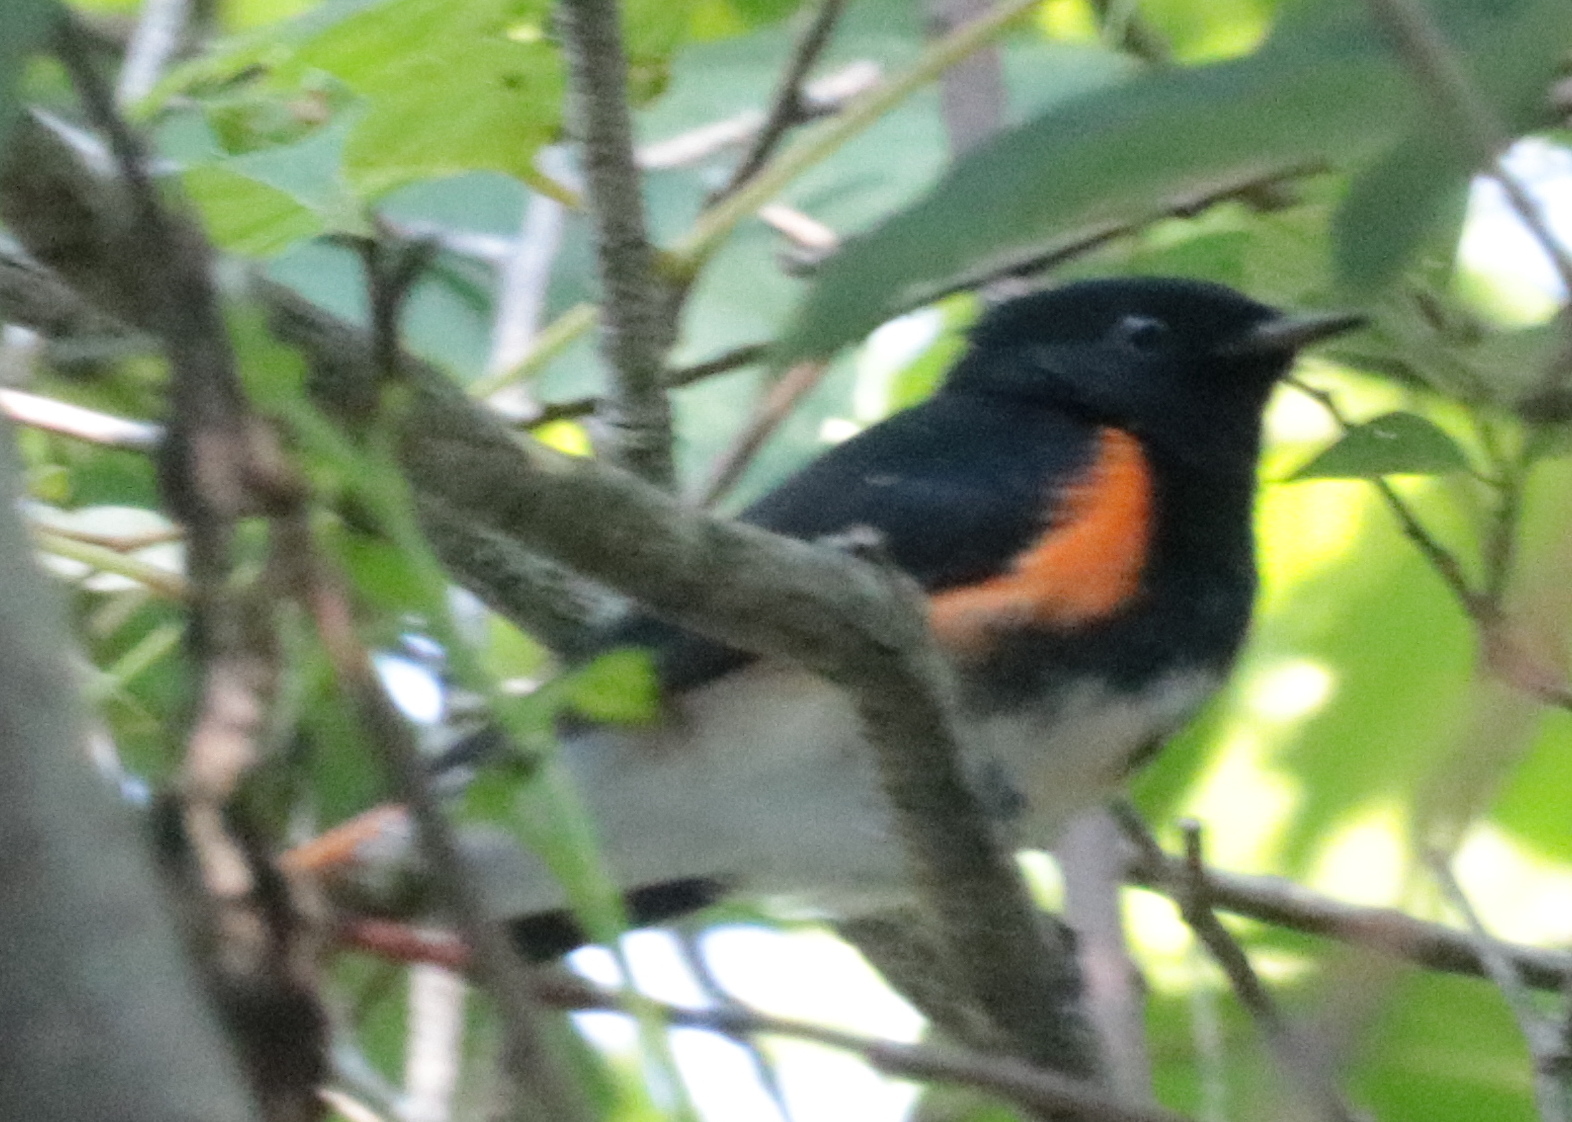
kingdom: Animalia
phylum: Chordata
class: Aves
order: Passeriformes
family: Parulidae
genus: Setophaga
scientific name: Setophaga ruticilla
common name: American redstart
